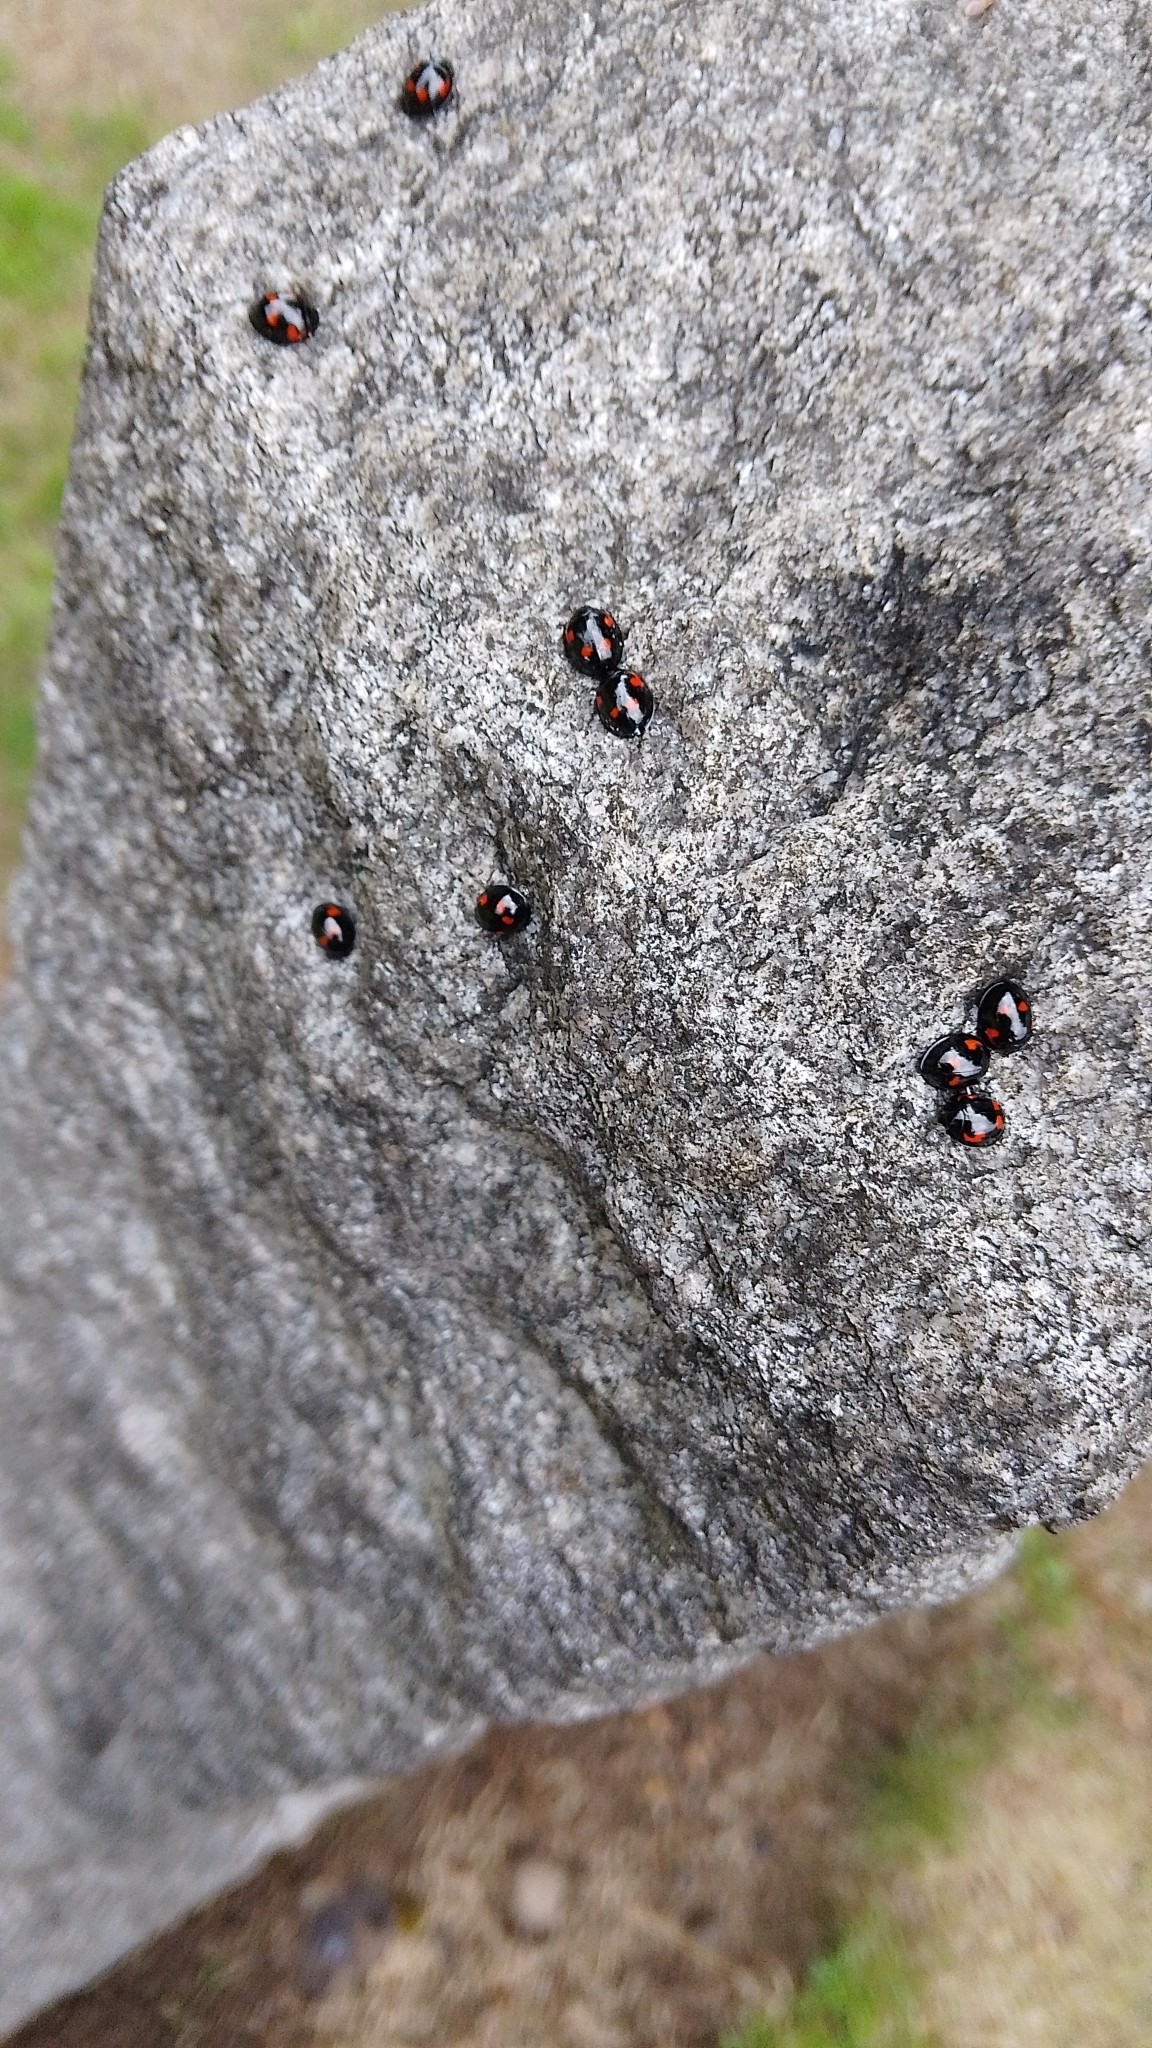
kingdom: Animalia
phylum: Arthropoda
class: Insecta
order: Coleoptera
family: Coccinellidae
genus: Brumus
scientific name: Brumus quadripustulatus
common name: Ladybird beetle
